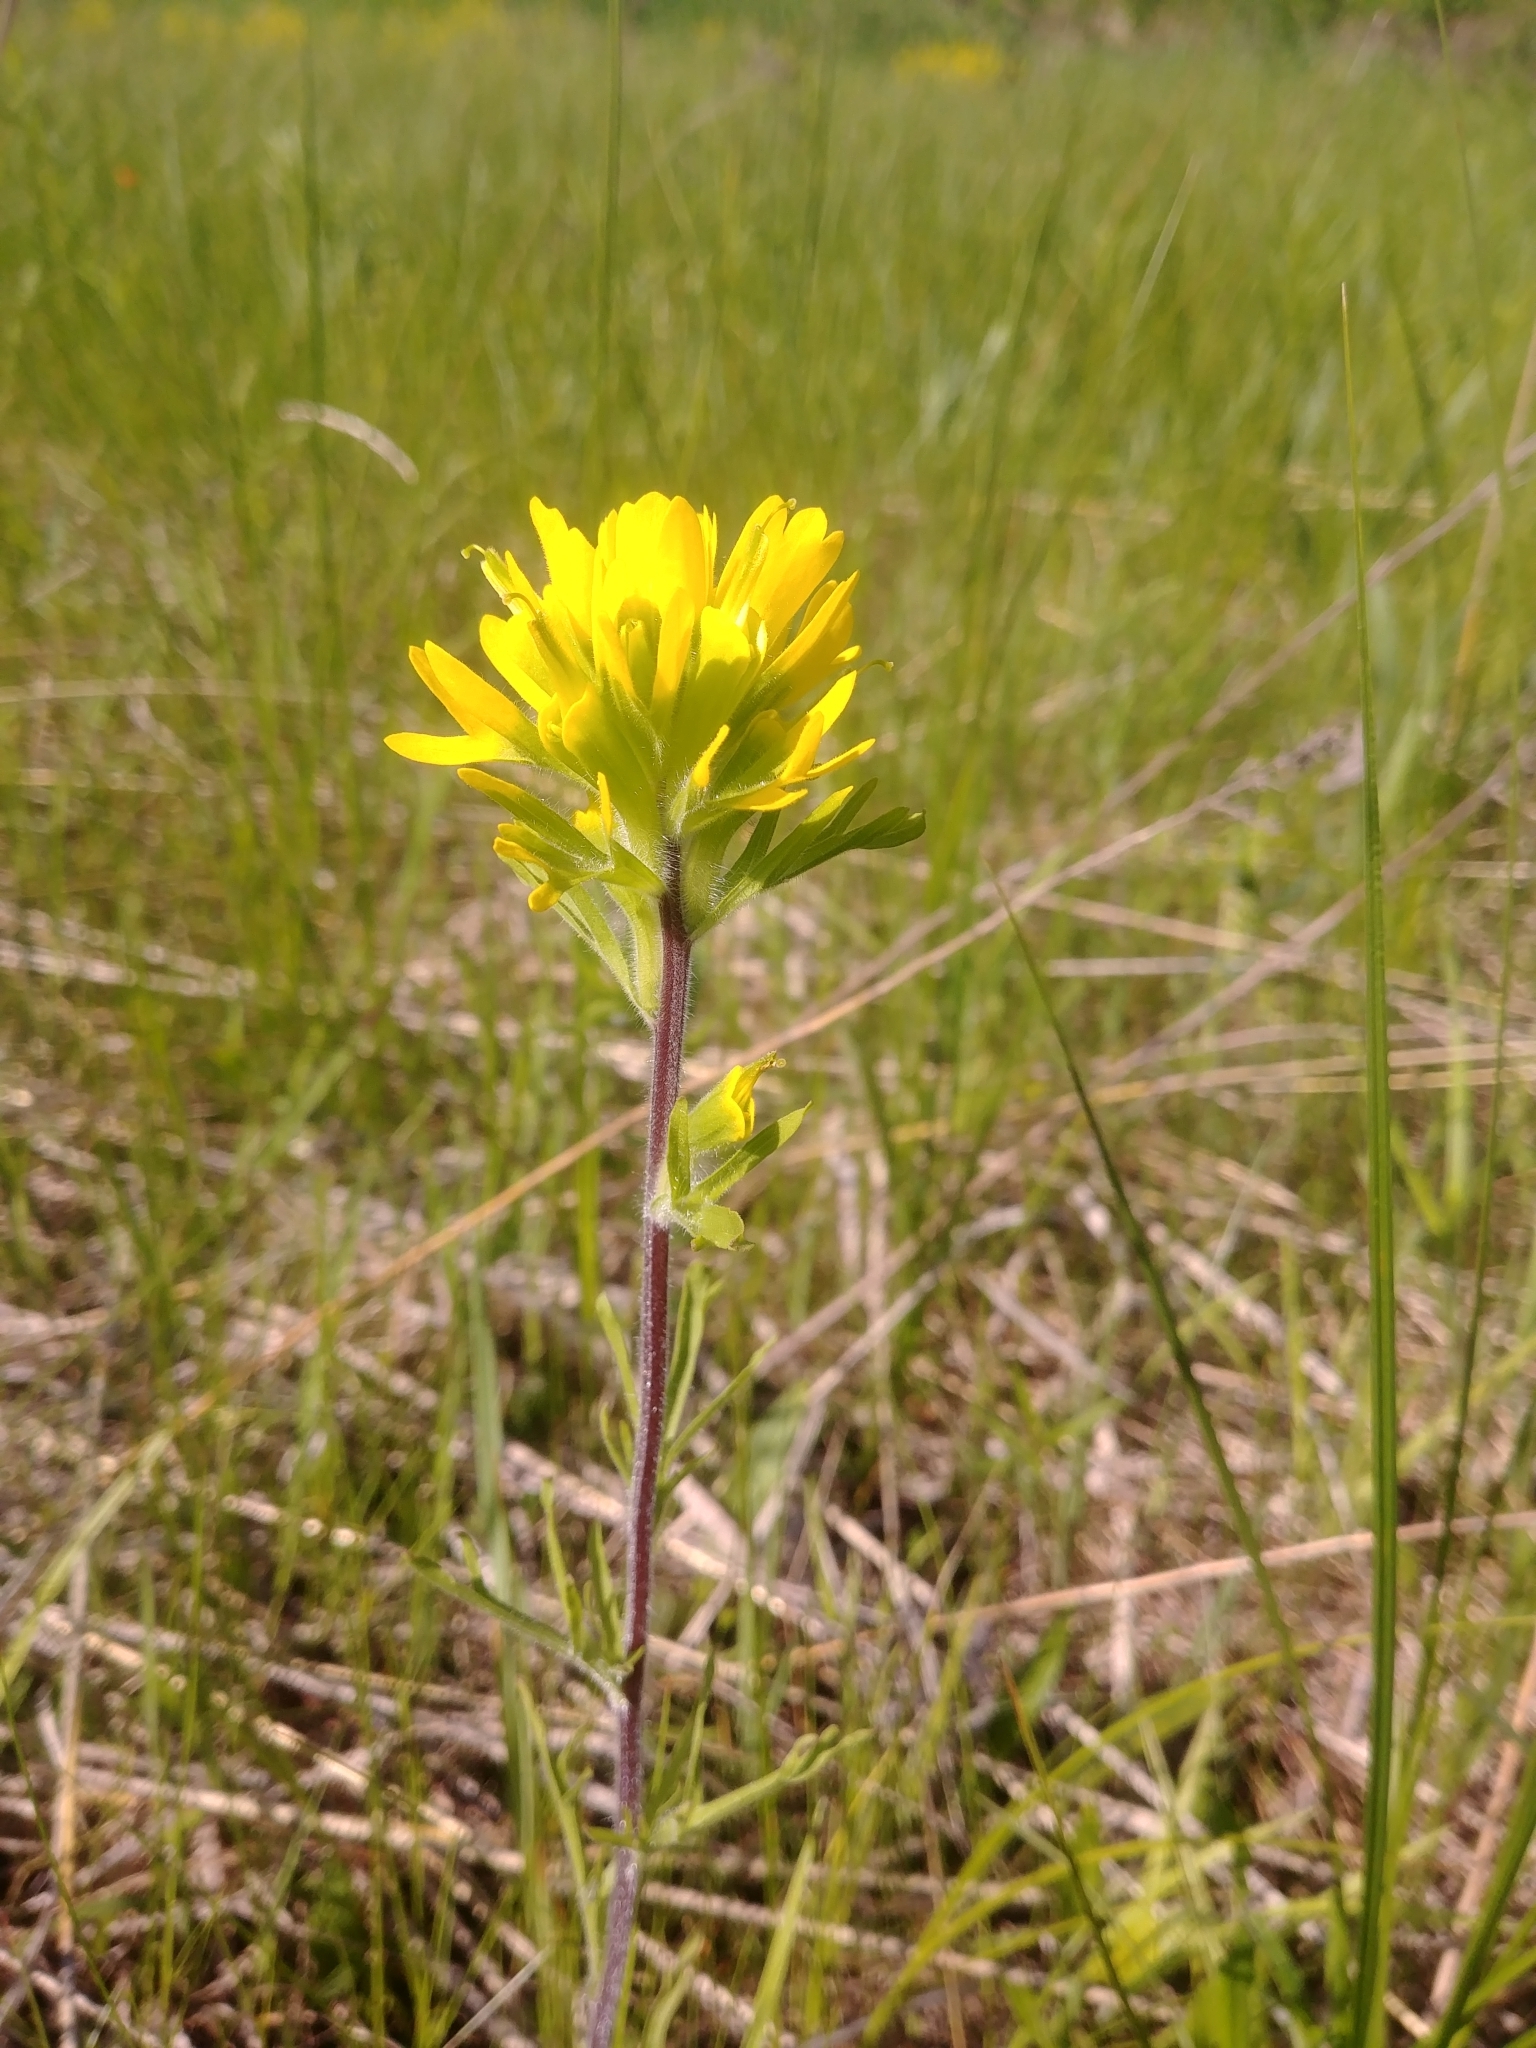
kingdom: Plantae
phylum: Tracheophyta
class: Magnoliopsida
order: Lamiales
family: Orobanchaceae
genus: Castilleja
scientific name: Castilleja coccinea
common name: Scarlet paintbrush
